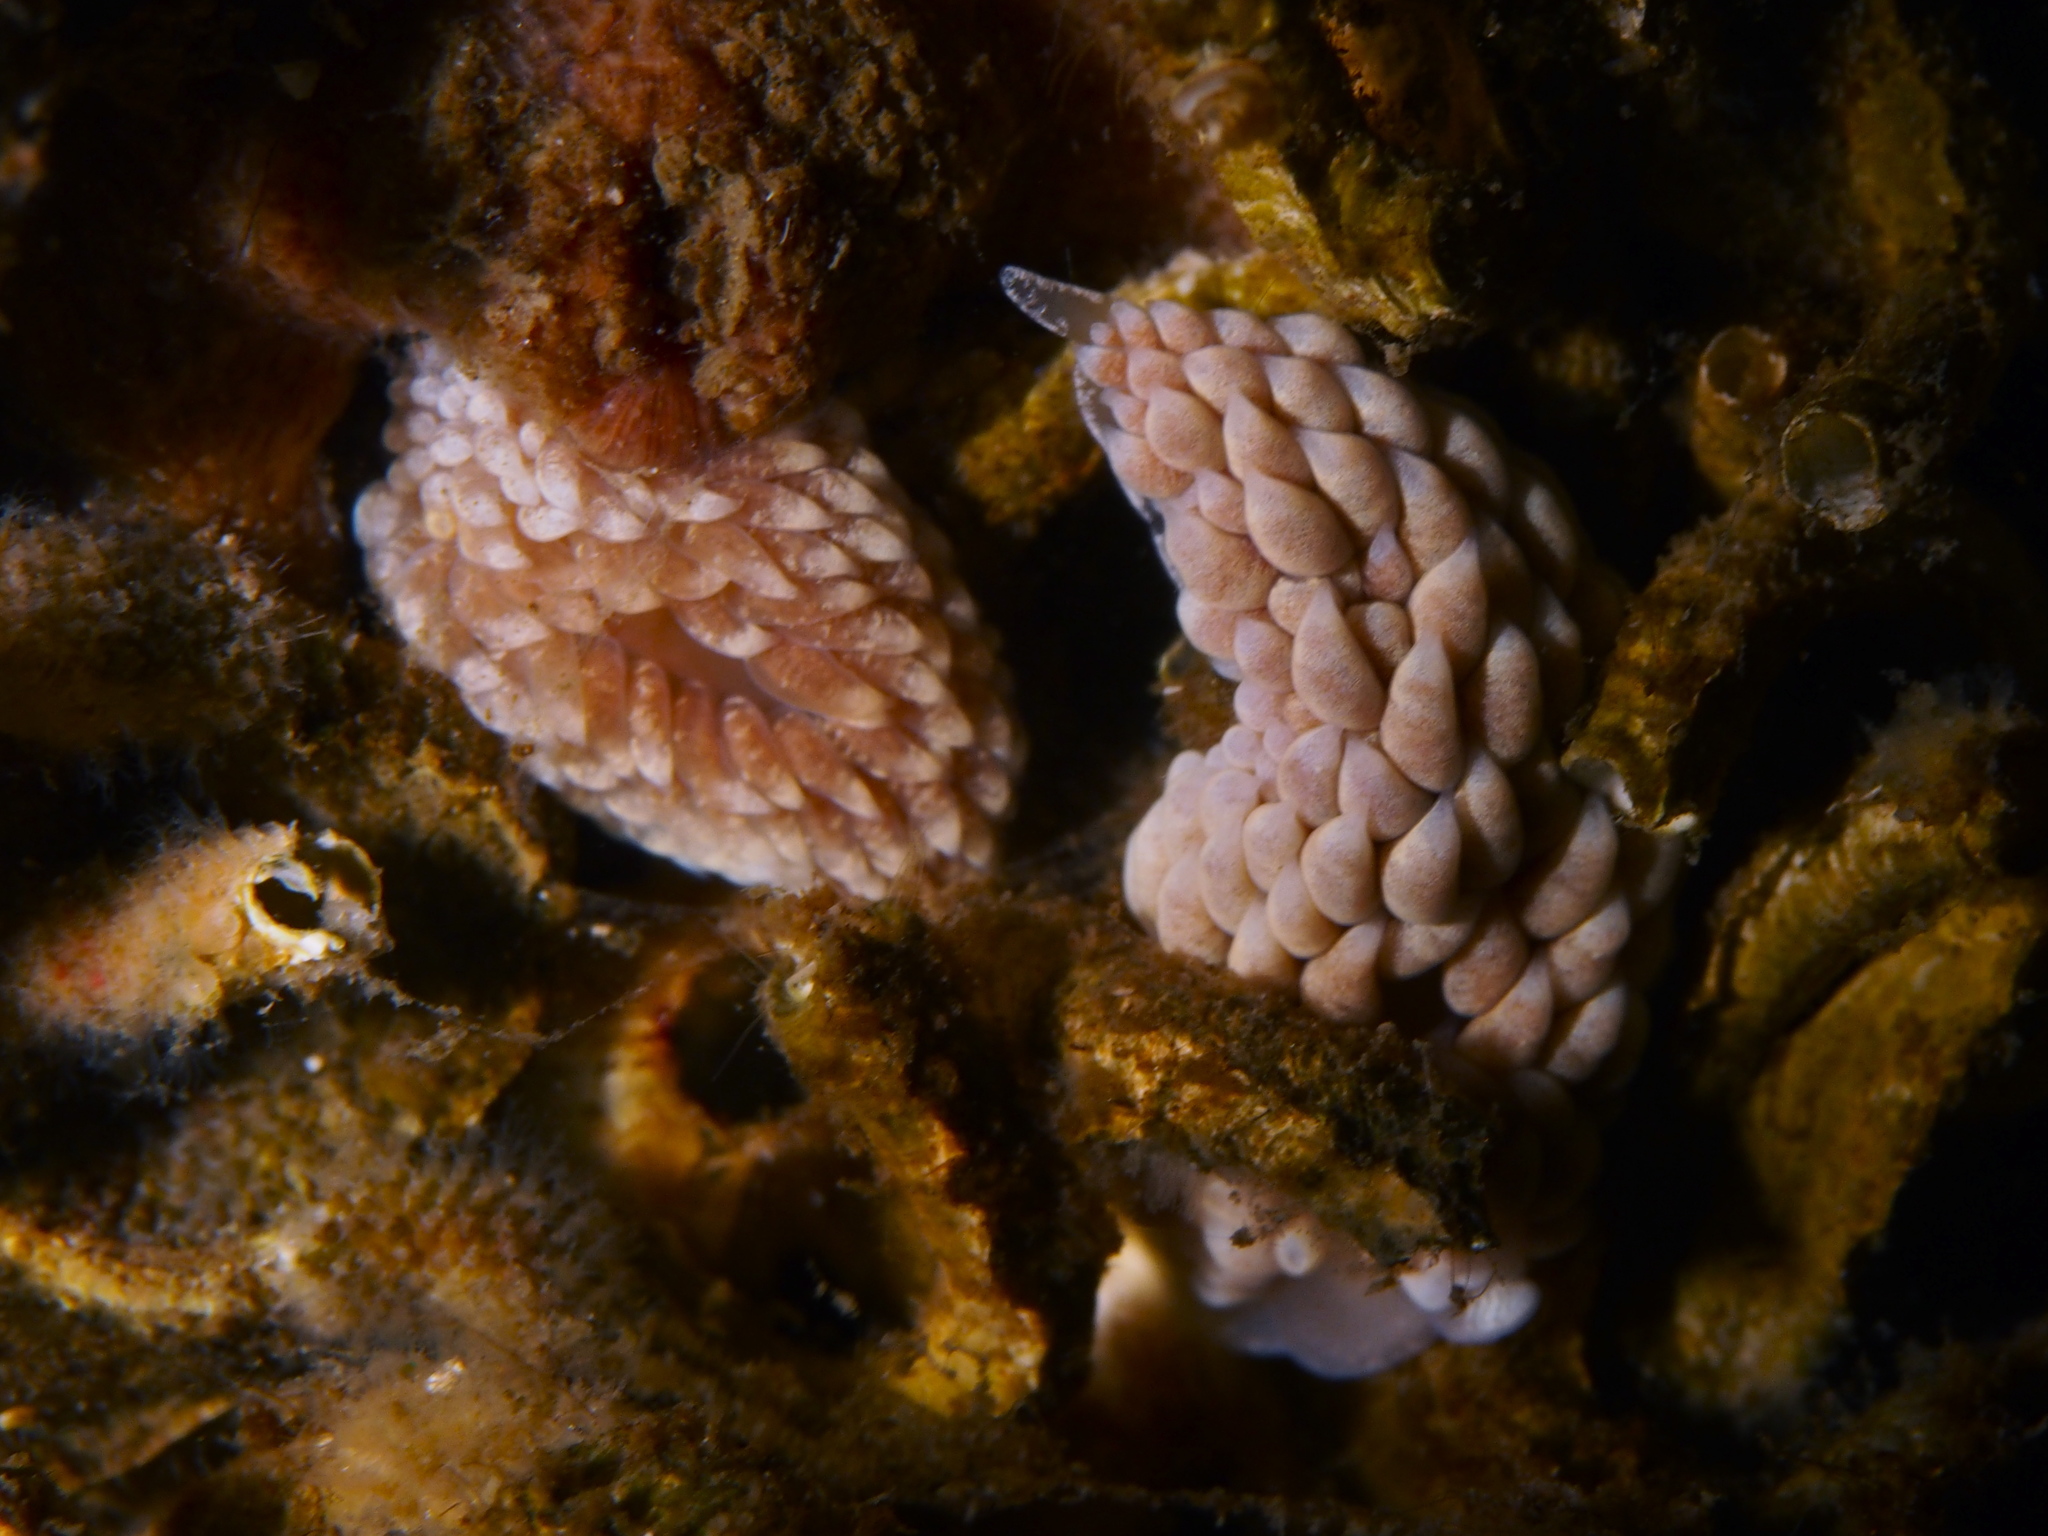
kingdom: Animalia
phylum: Mollusca
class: Gastropoda
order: Nudibranchia
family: Aeolidiidae
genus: Aeolidiella
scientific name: Aeolidiella glauca
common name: Orange-brown aeolid
